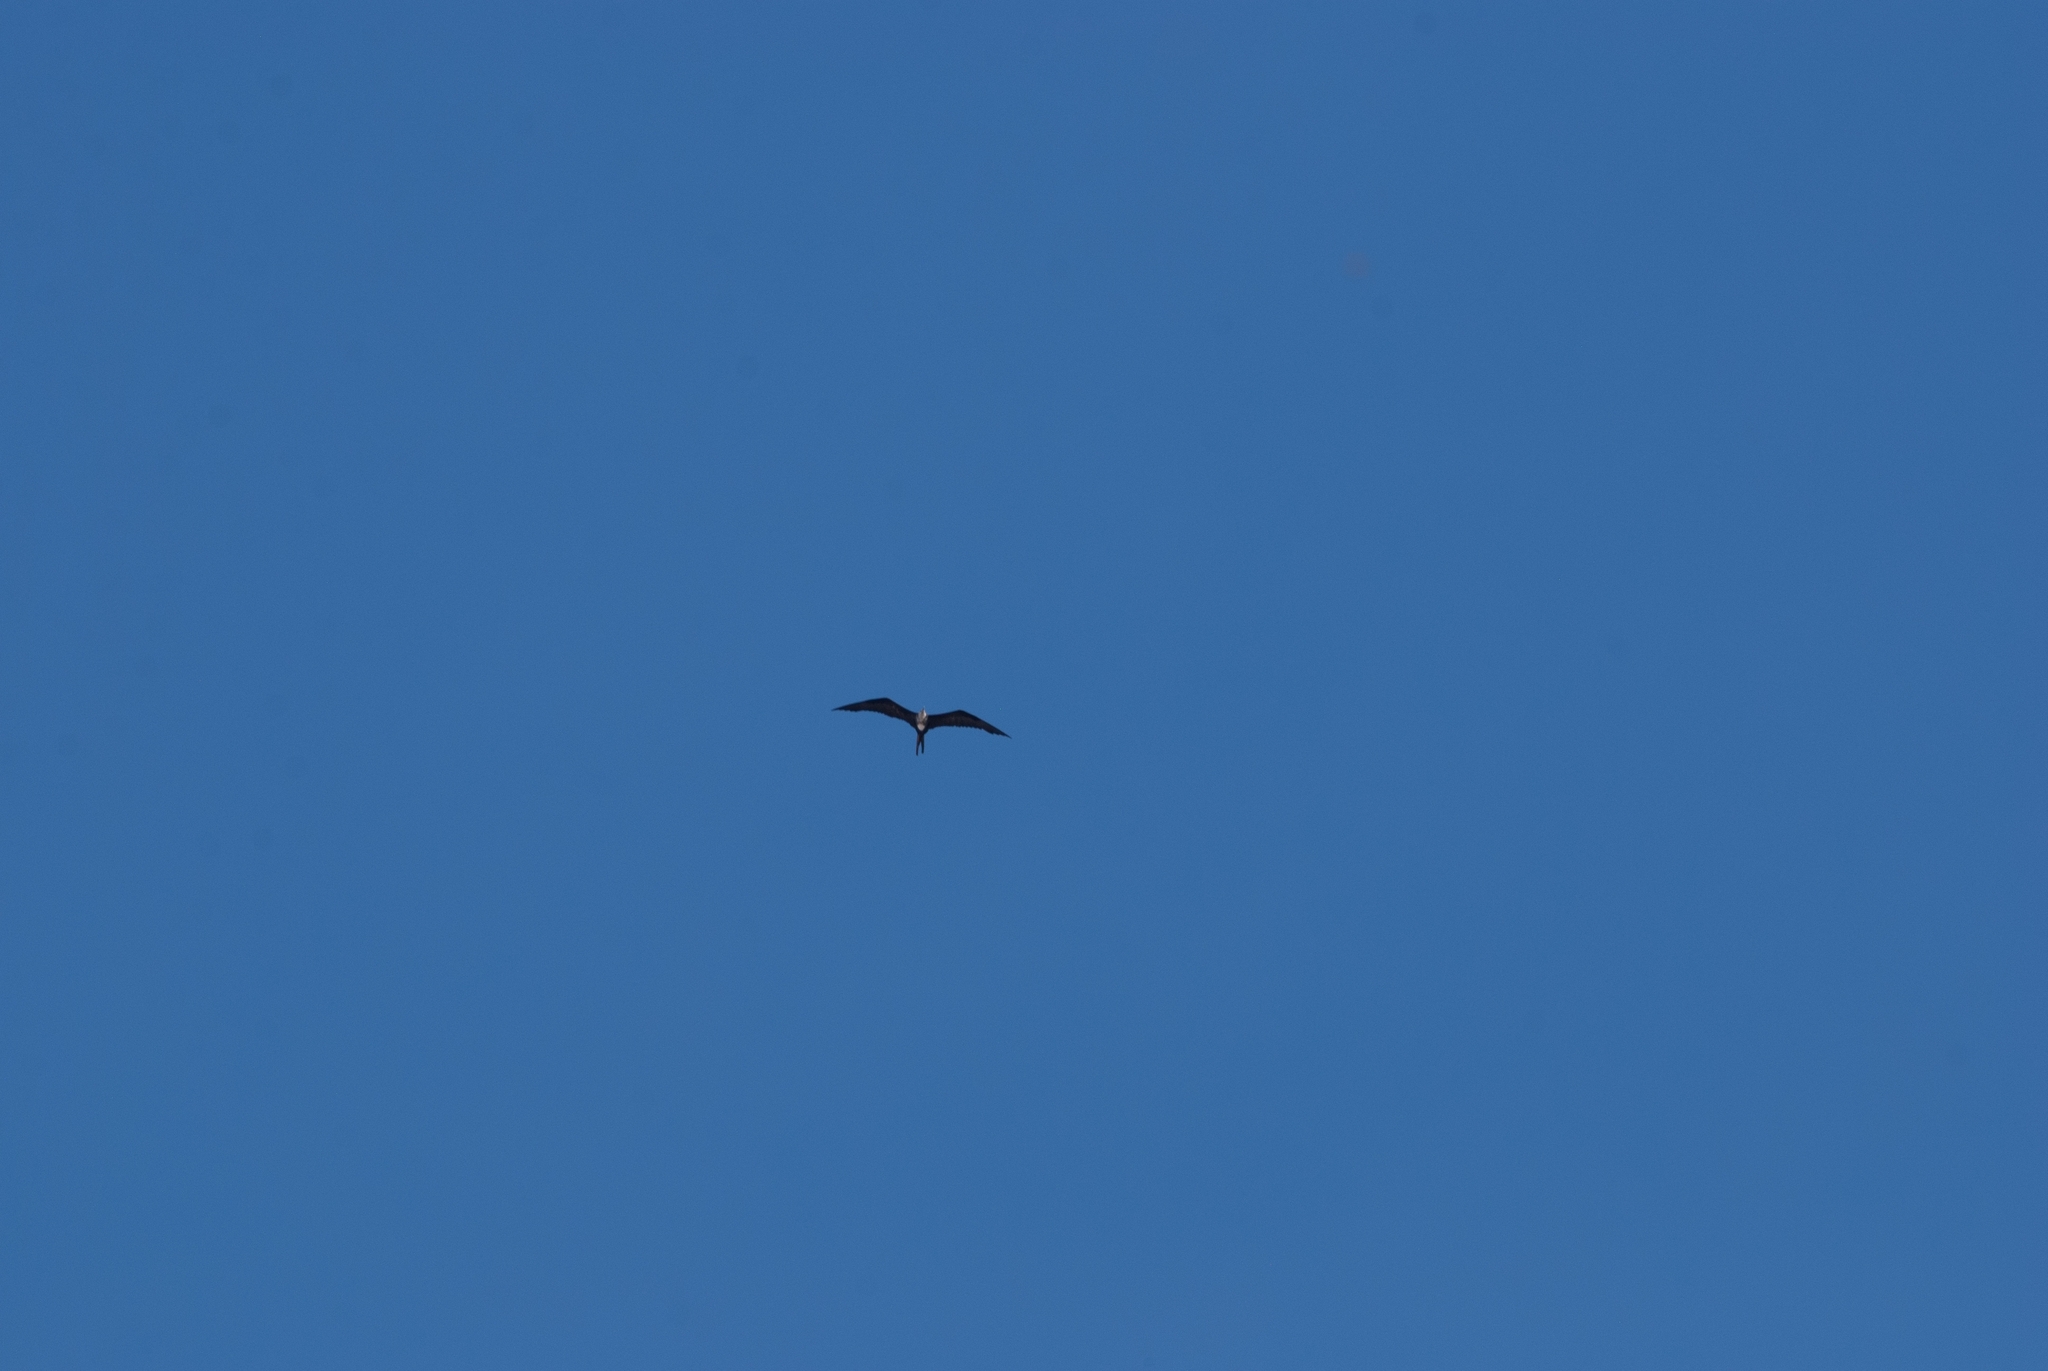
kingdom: Animalia
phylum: Chordata
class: Aves
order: Suliformes
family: Fregatidae
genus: Fregata
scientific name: Fregata magnificens
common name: Magnificent frigatebird
